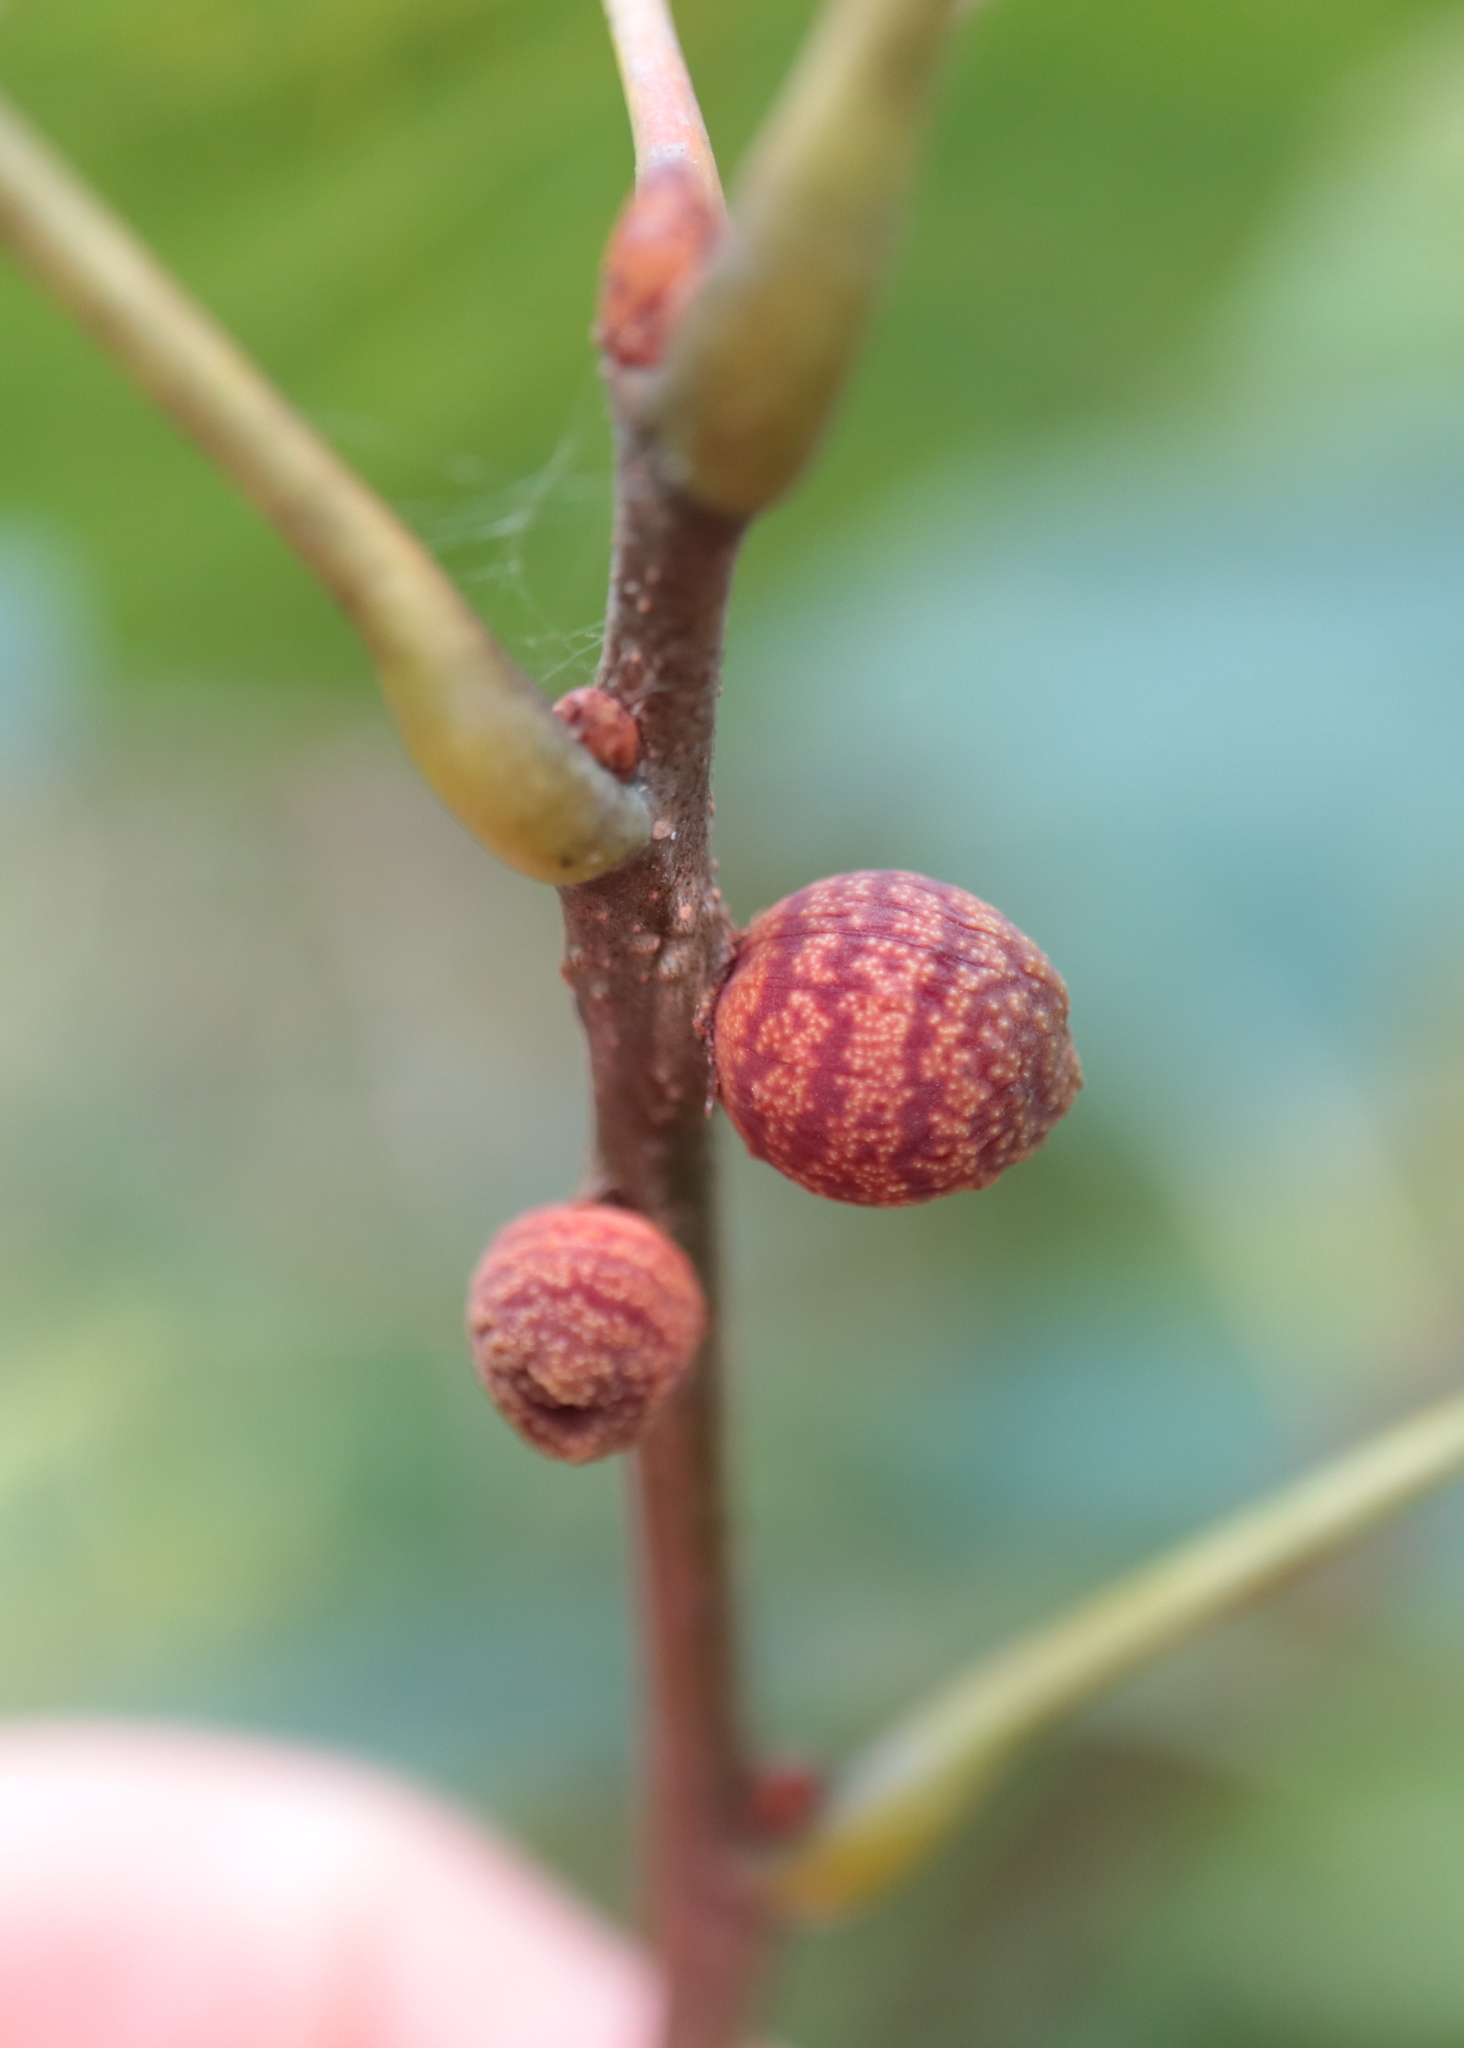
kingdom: Animalia
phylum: Arthropoda
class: Insecta
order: Hymenoptera
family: Cynipidae
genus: Kokkocynips
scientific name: Kokkocynips imbricariae
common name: Banded bullet gall wasp
